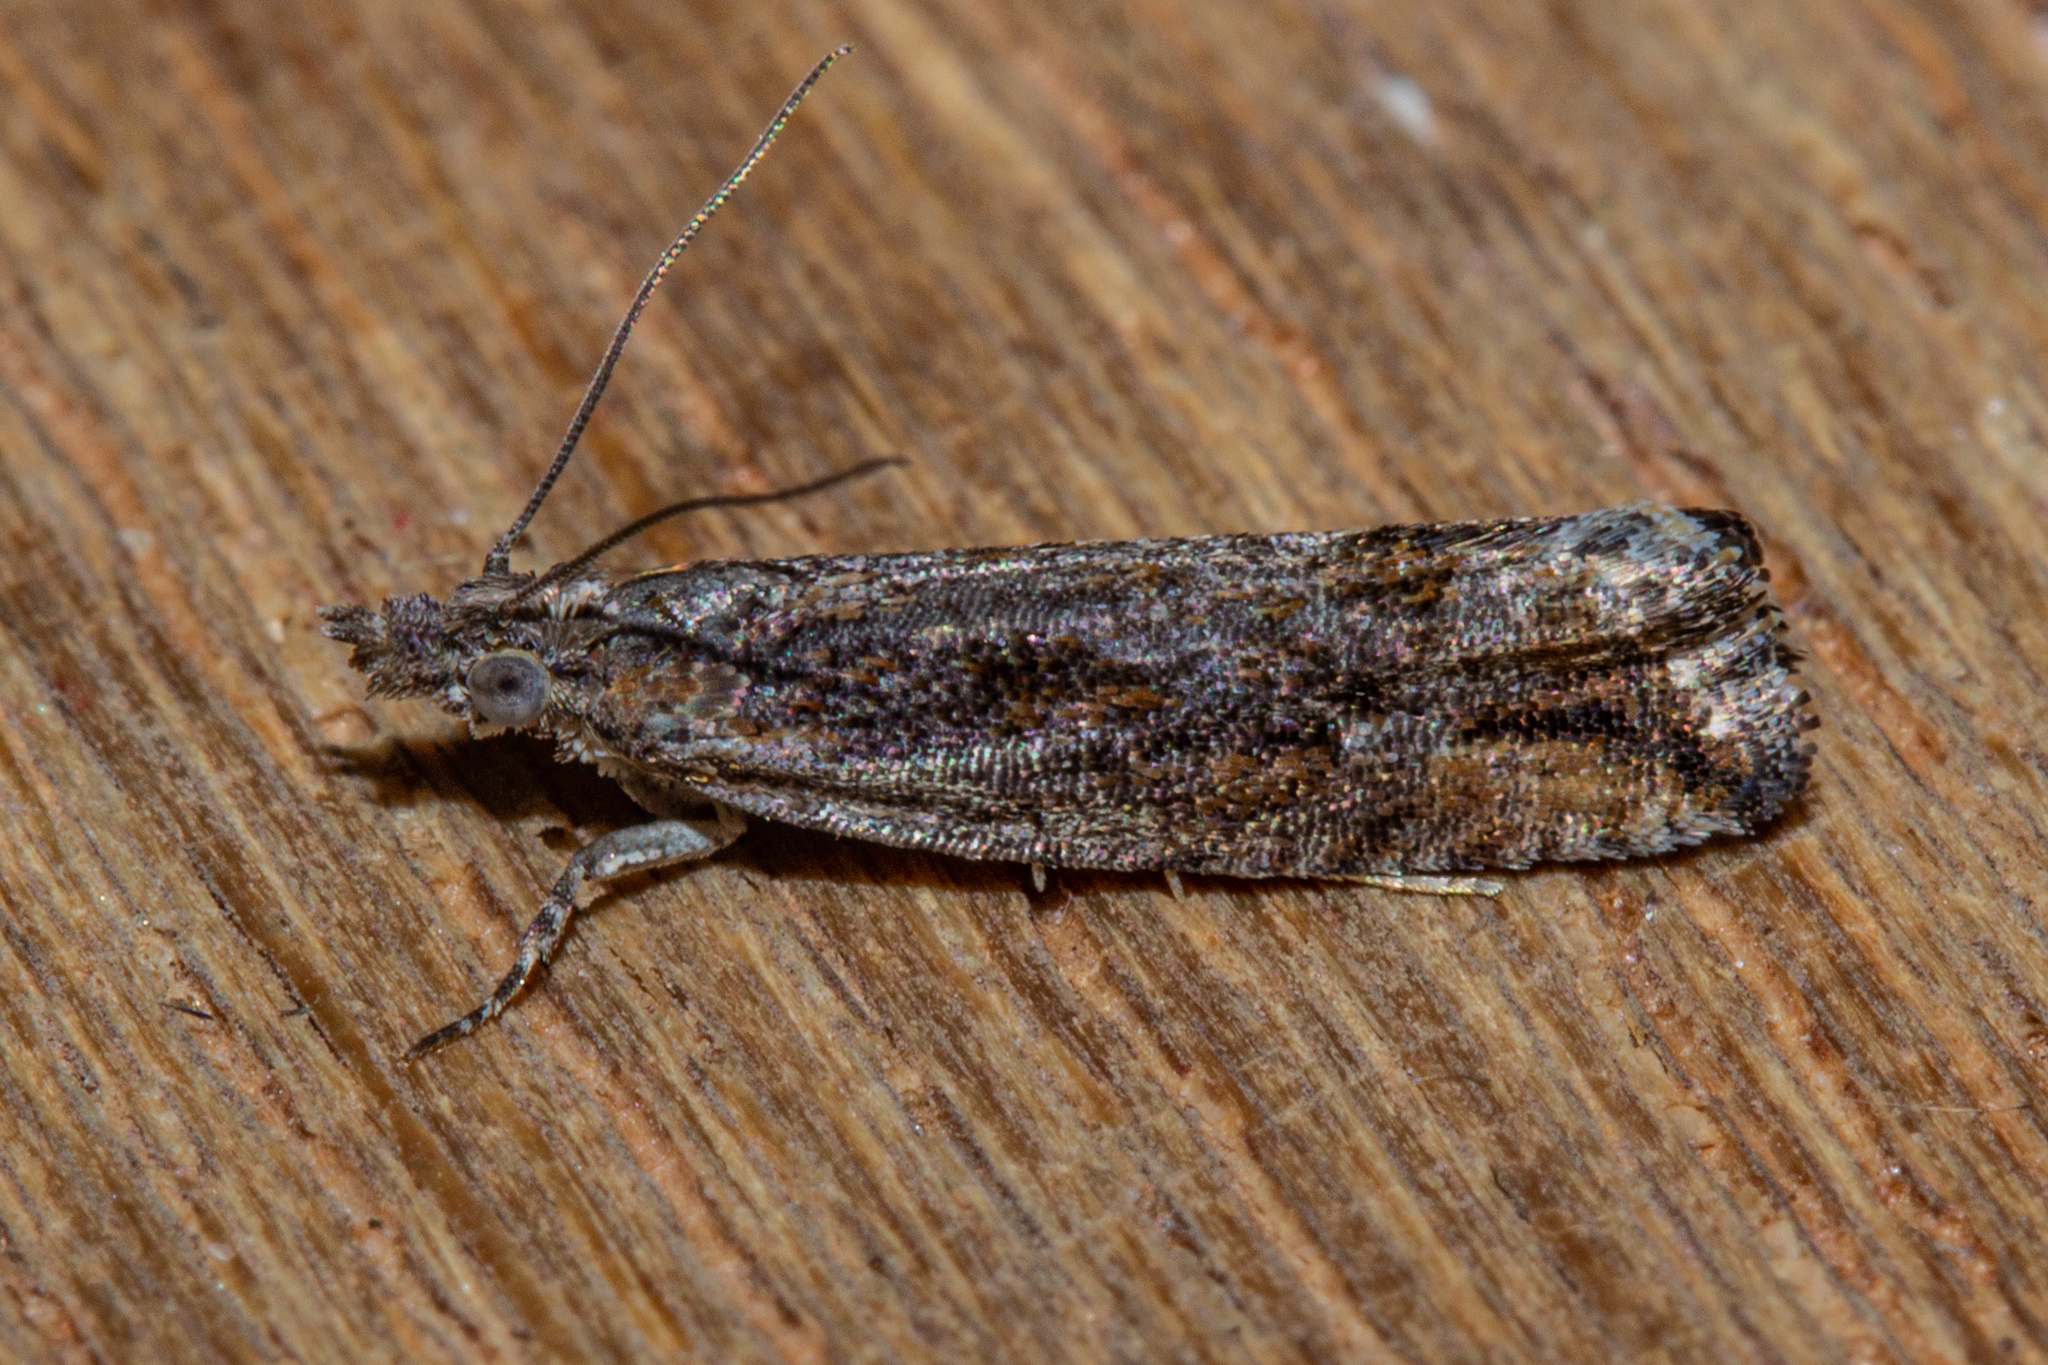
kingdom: Animalia
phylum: Arthropoda
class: Insecta
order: Lepidoptera
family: Tortricidae
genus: Strepsicrates
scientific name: Strepsicrates ejectana
